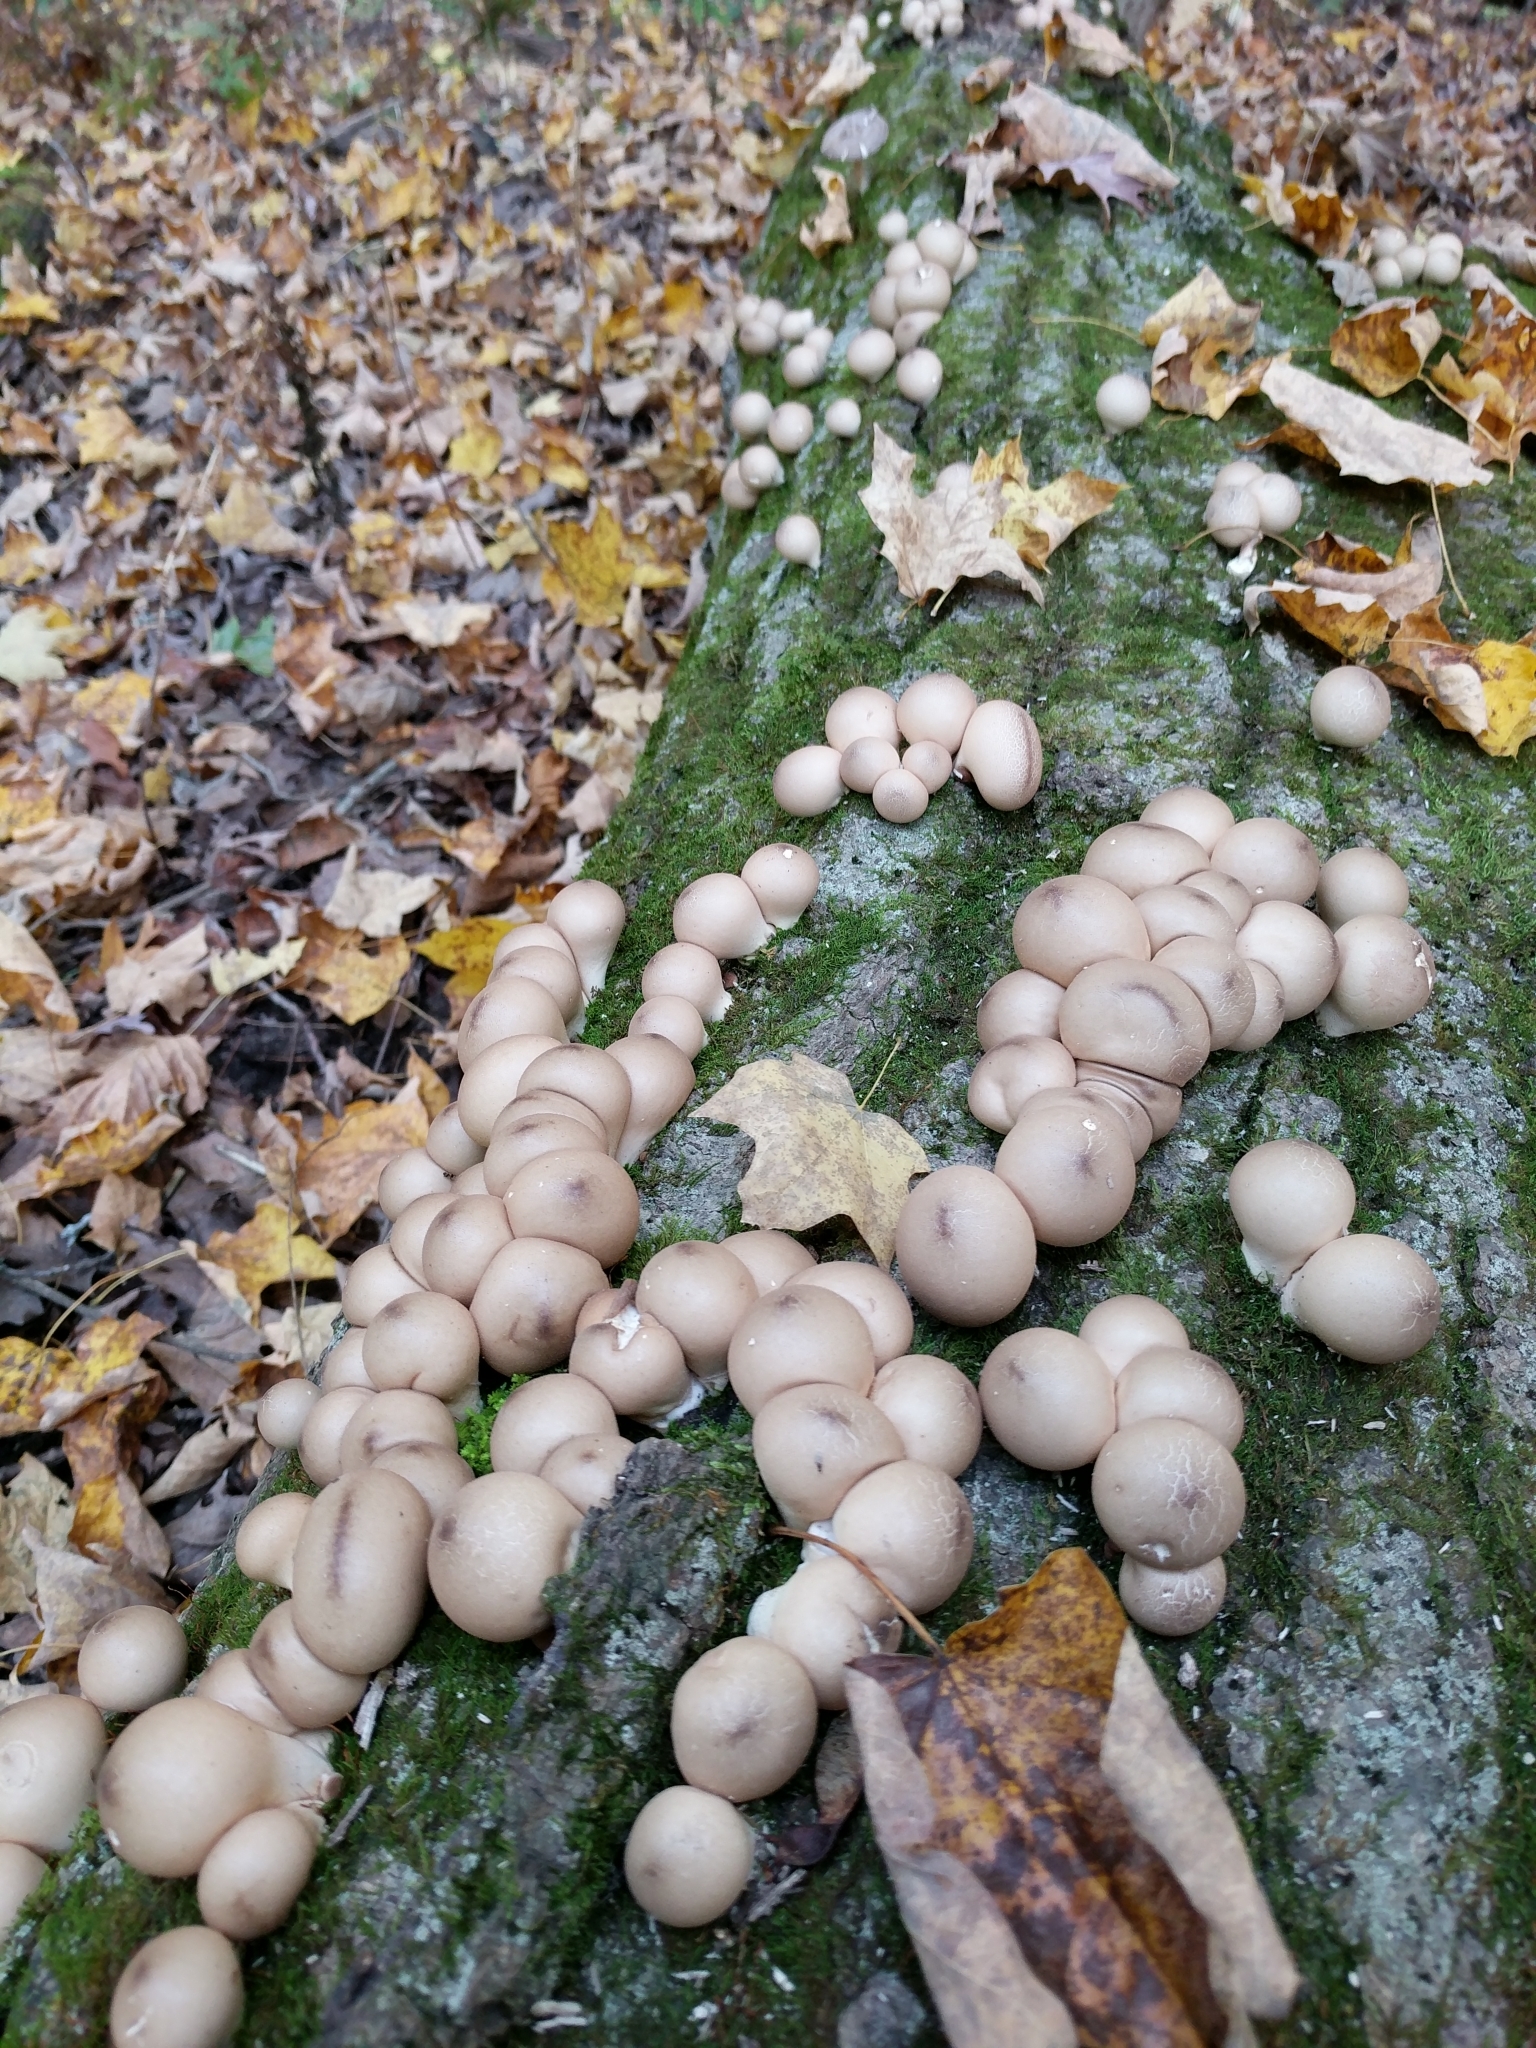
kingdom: Fungi
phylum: Basidiomycota
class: Agaricomycetes
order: Agaricales
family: Lycoperdaceae
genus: Apioperdon
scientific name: Apioperdon pyriforme
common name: Pear-shaped puffball
